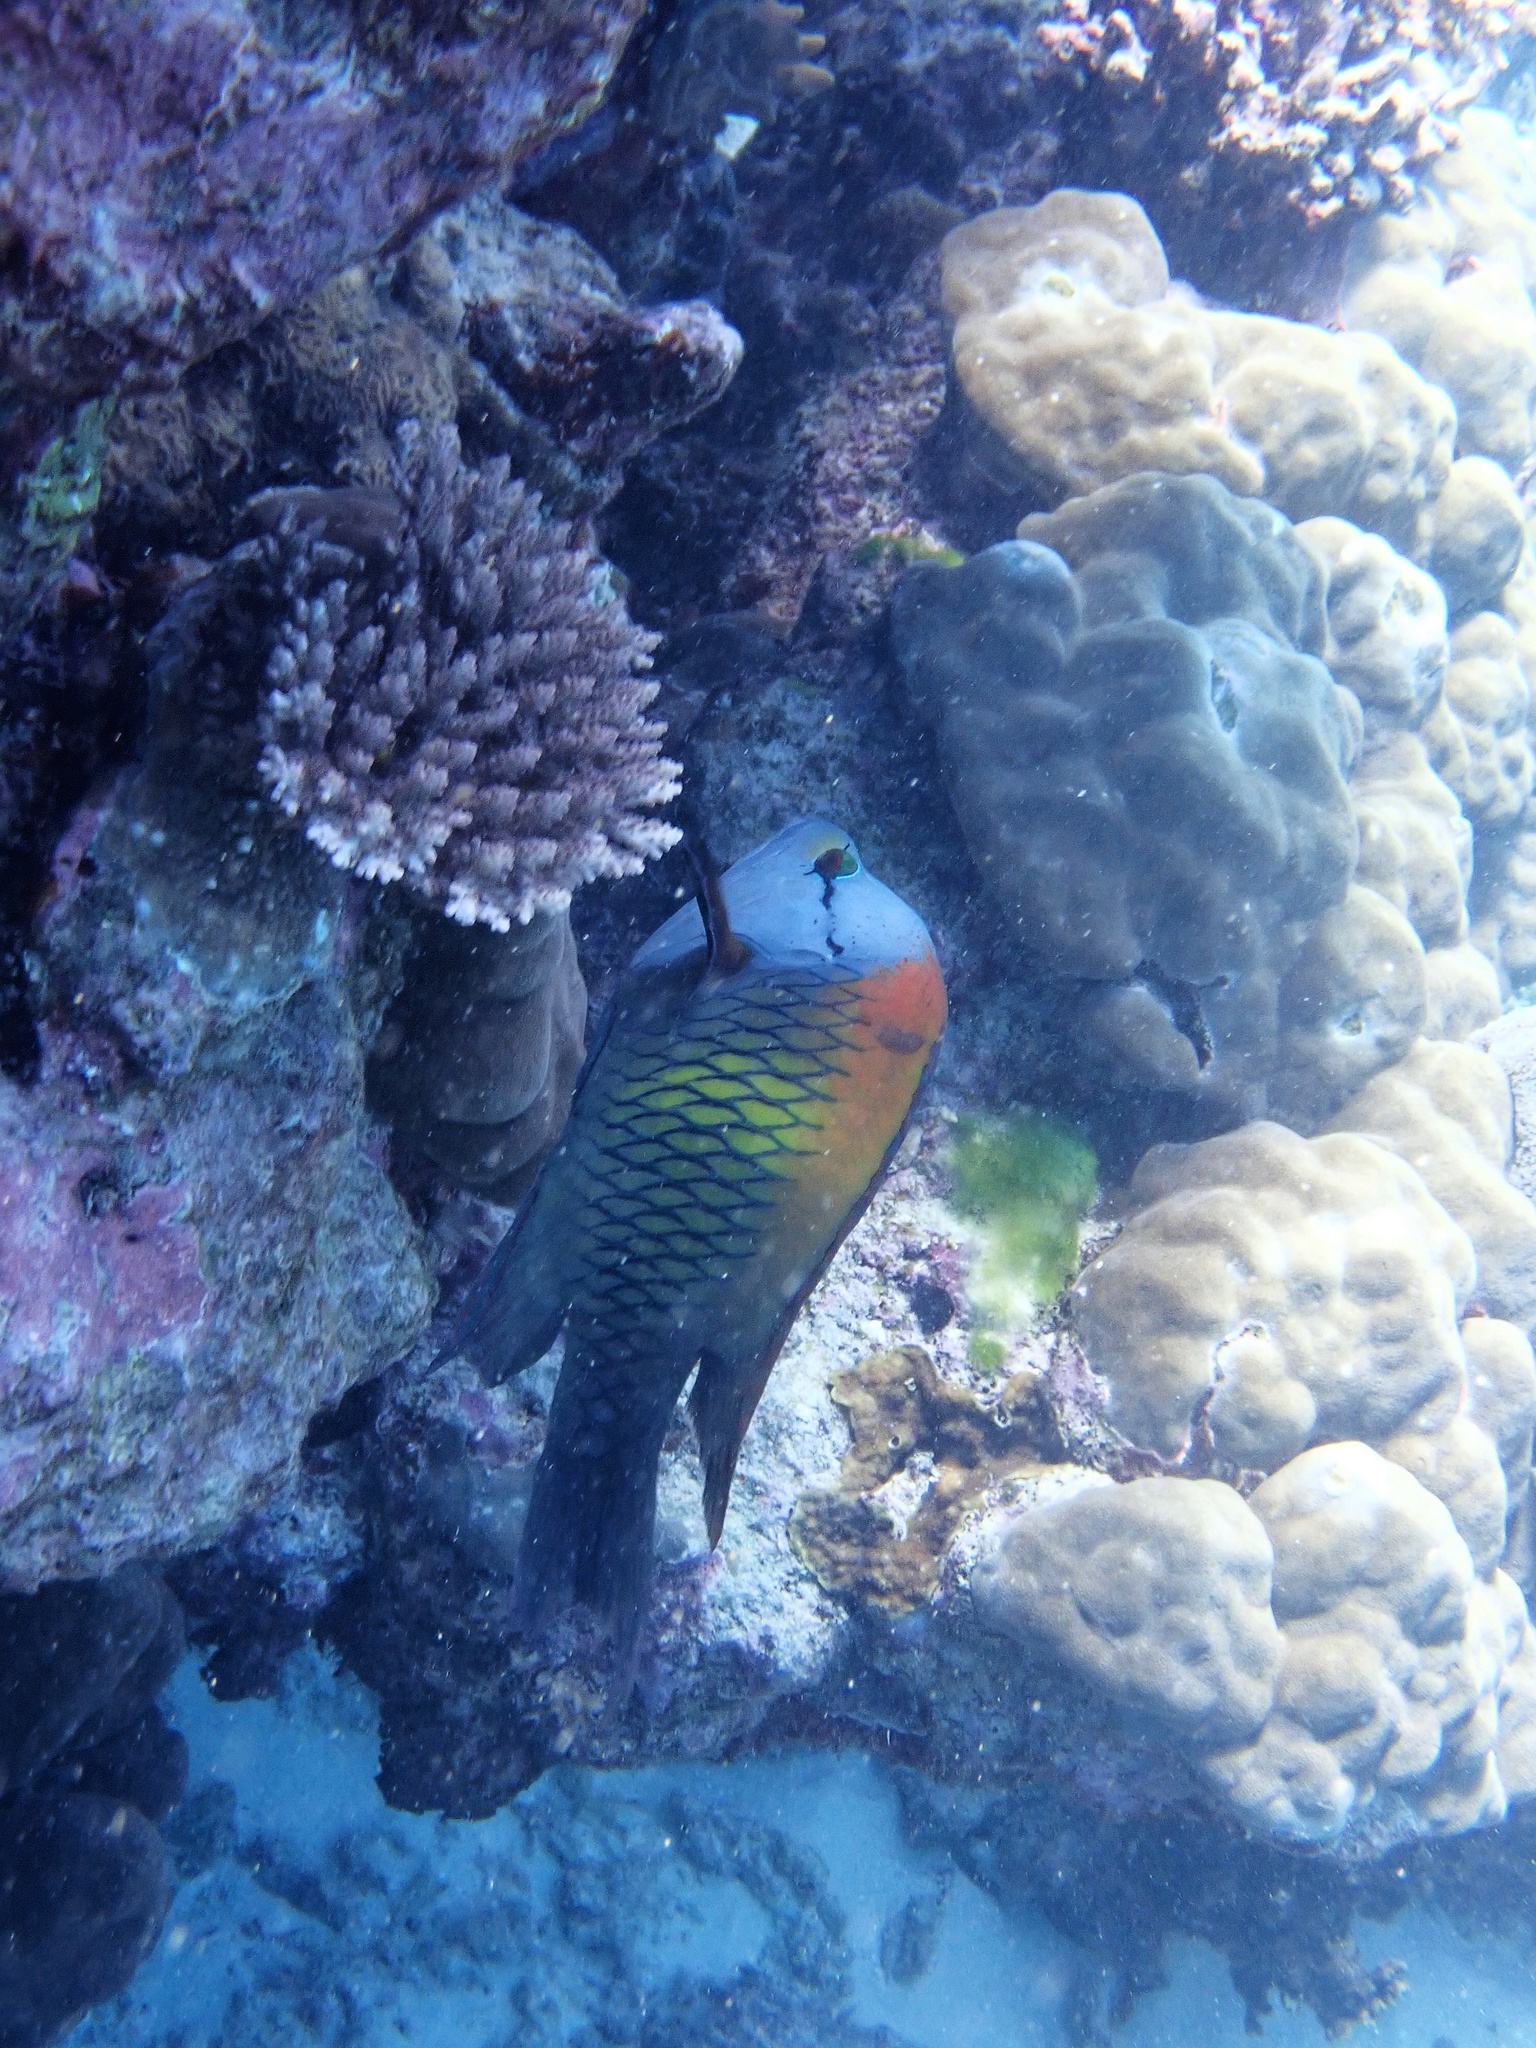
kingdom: Animalia
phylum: Chordata
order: Perciformes
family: Labridae
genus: Epibulus
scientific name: Epibulus insidiator
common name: Slingjaw wrasse
